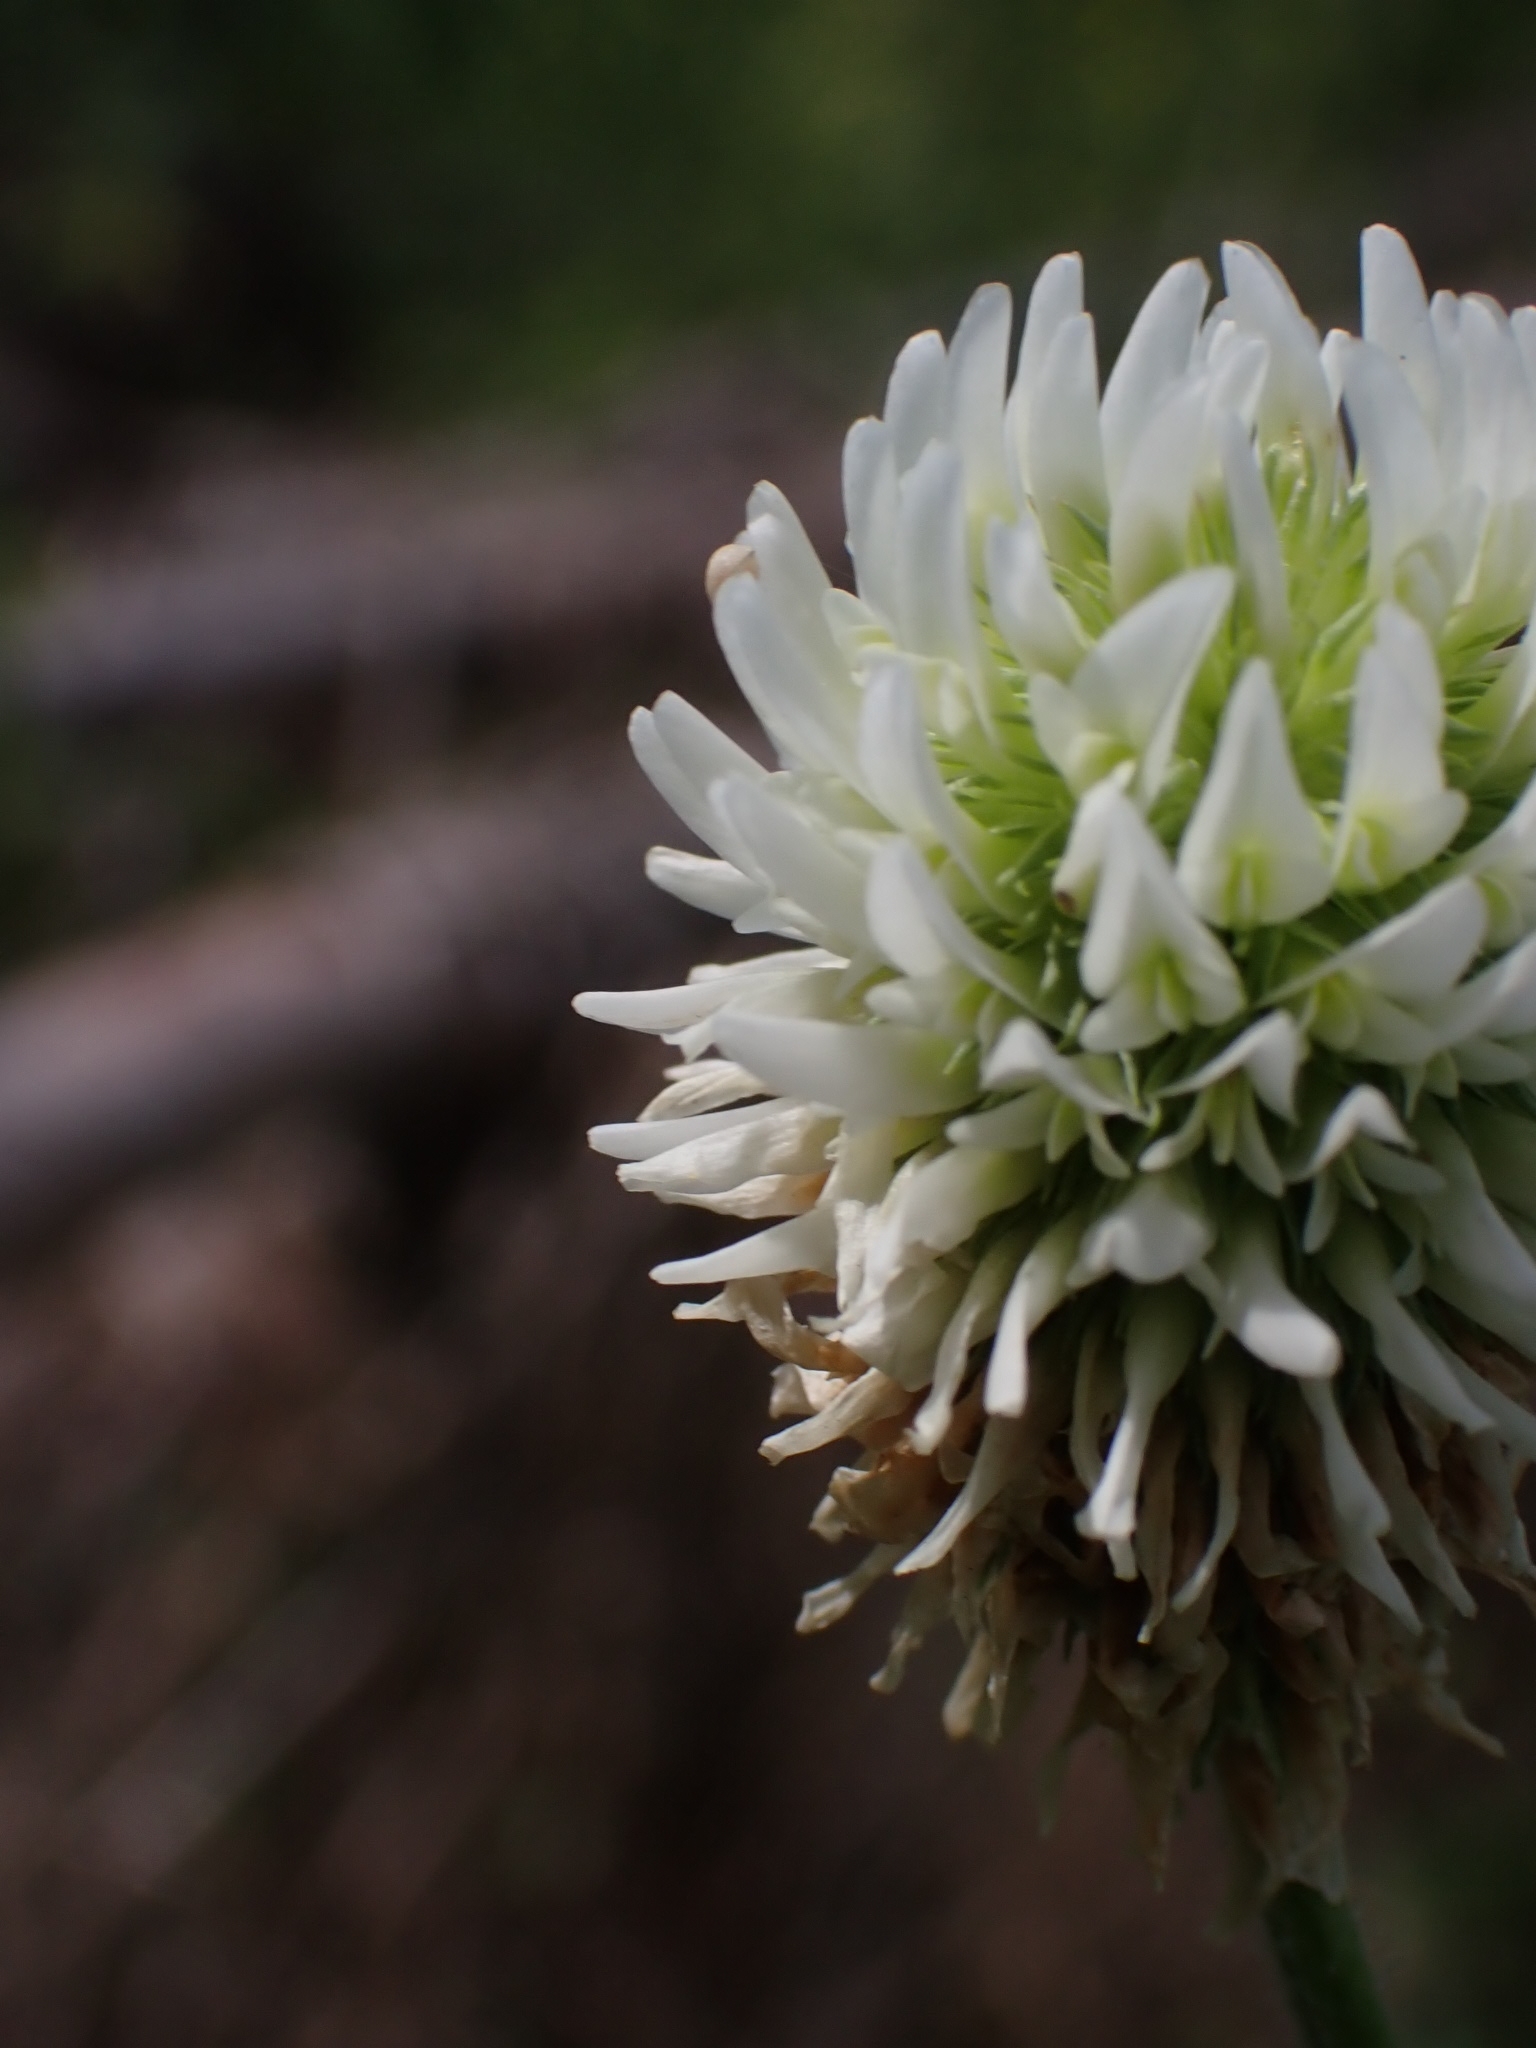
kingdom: Plantae
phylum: Tracheophyta
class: Magnoliopsida
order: Fabales
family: Fabaceae
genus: Trifolium
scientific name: Trifolium montanum
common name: Mountain clover
